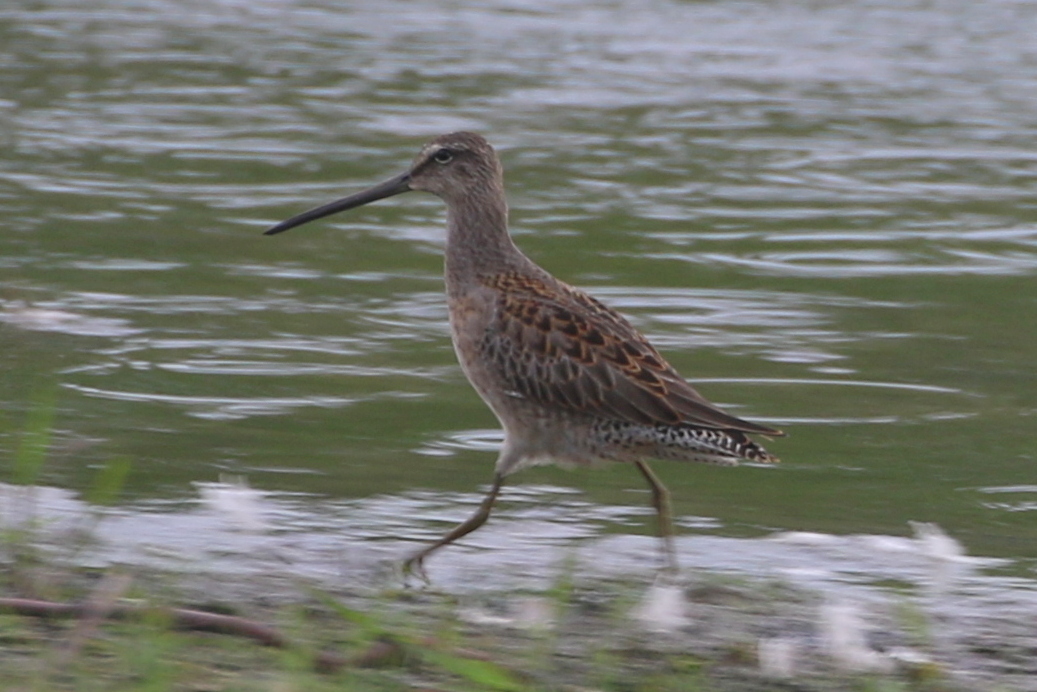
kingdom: Animalia
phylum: Chordata
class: Aves
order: Charadriiformes
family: Scolopacidae
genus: Limnodromus
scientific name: Limnodromus scolopaceus
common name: Long-billed dowitcher
